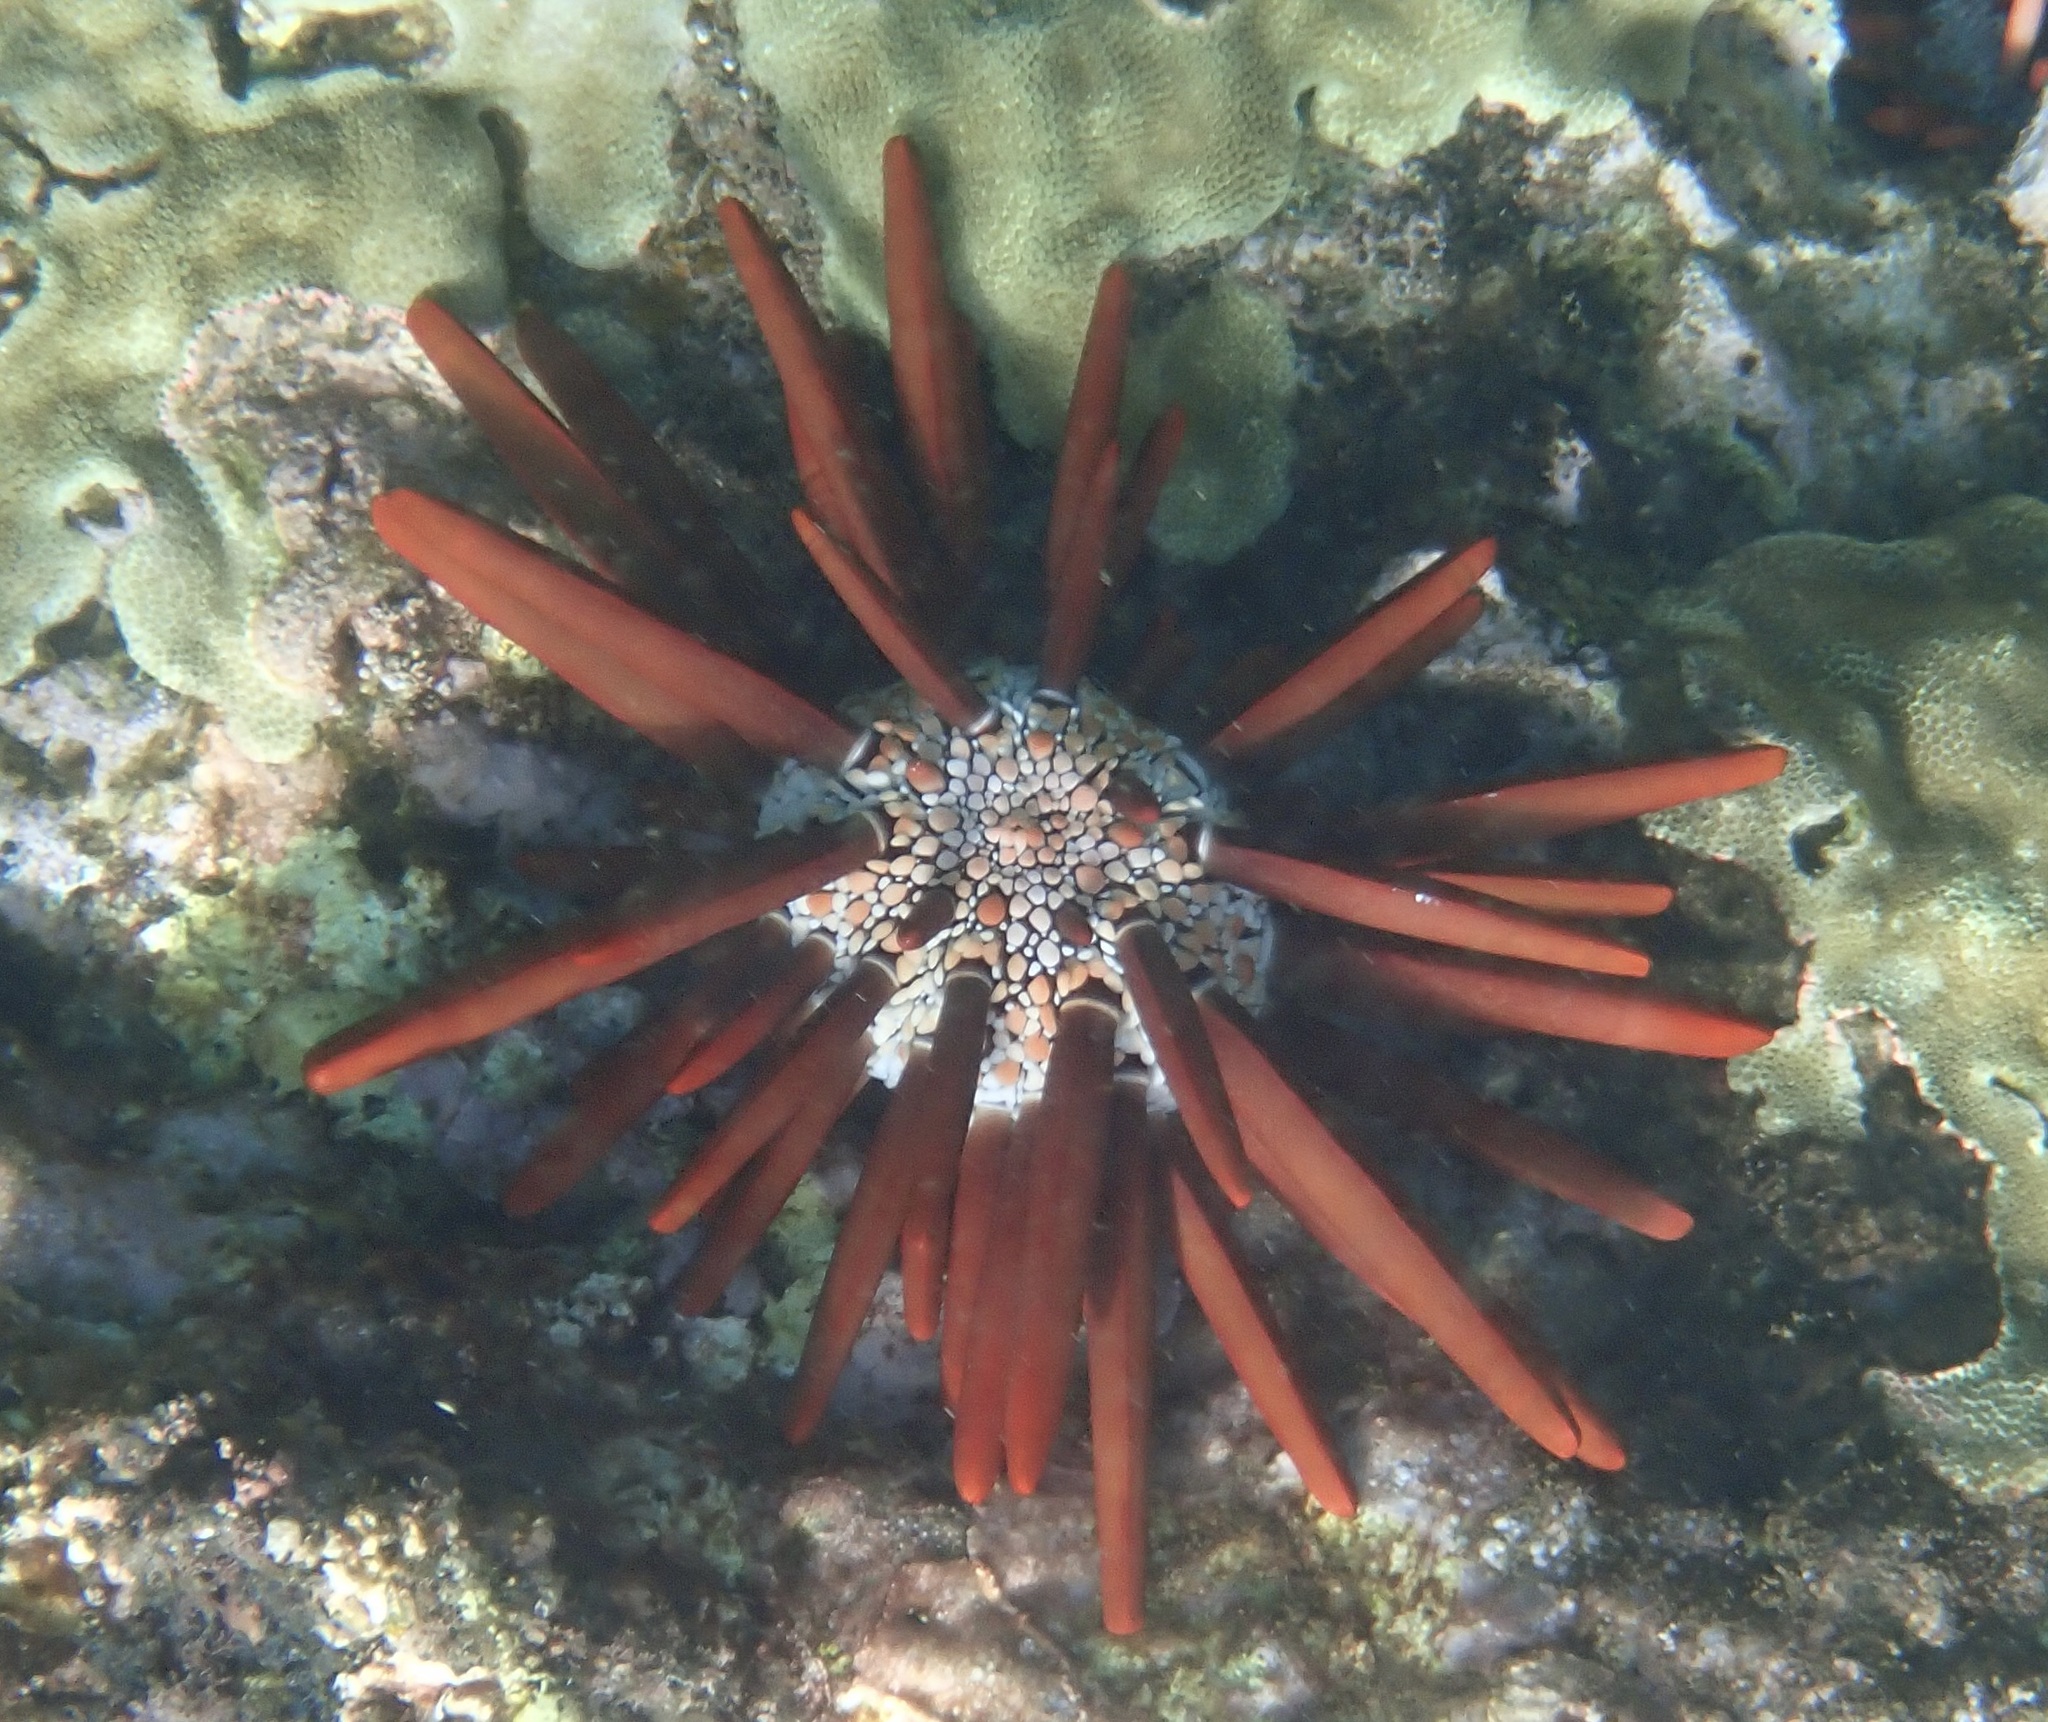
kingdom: Animalia
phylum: Echinodermata
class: Echinoidea
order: Camarodonta
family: Echinometridae
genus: Heterocentrotus
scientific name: Heterocentrotus mamillatus
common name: Slate pencil urchin
